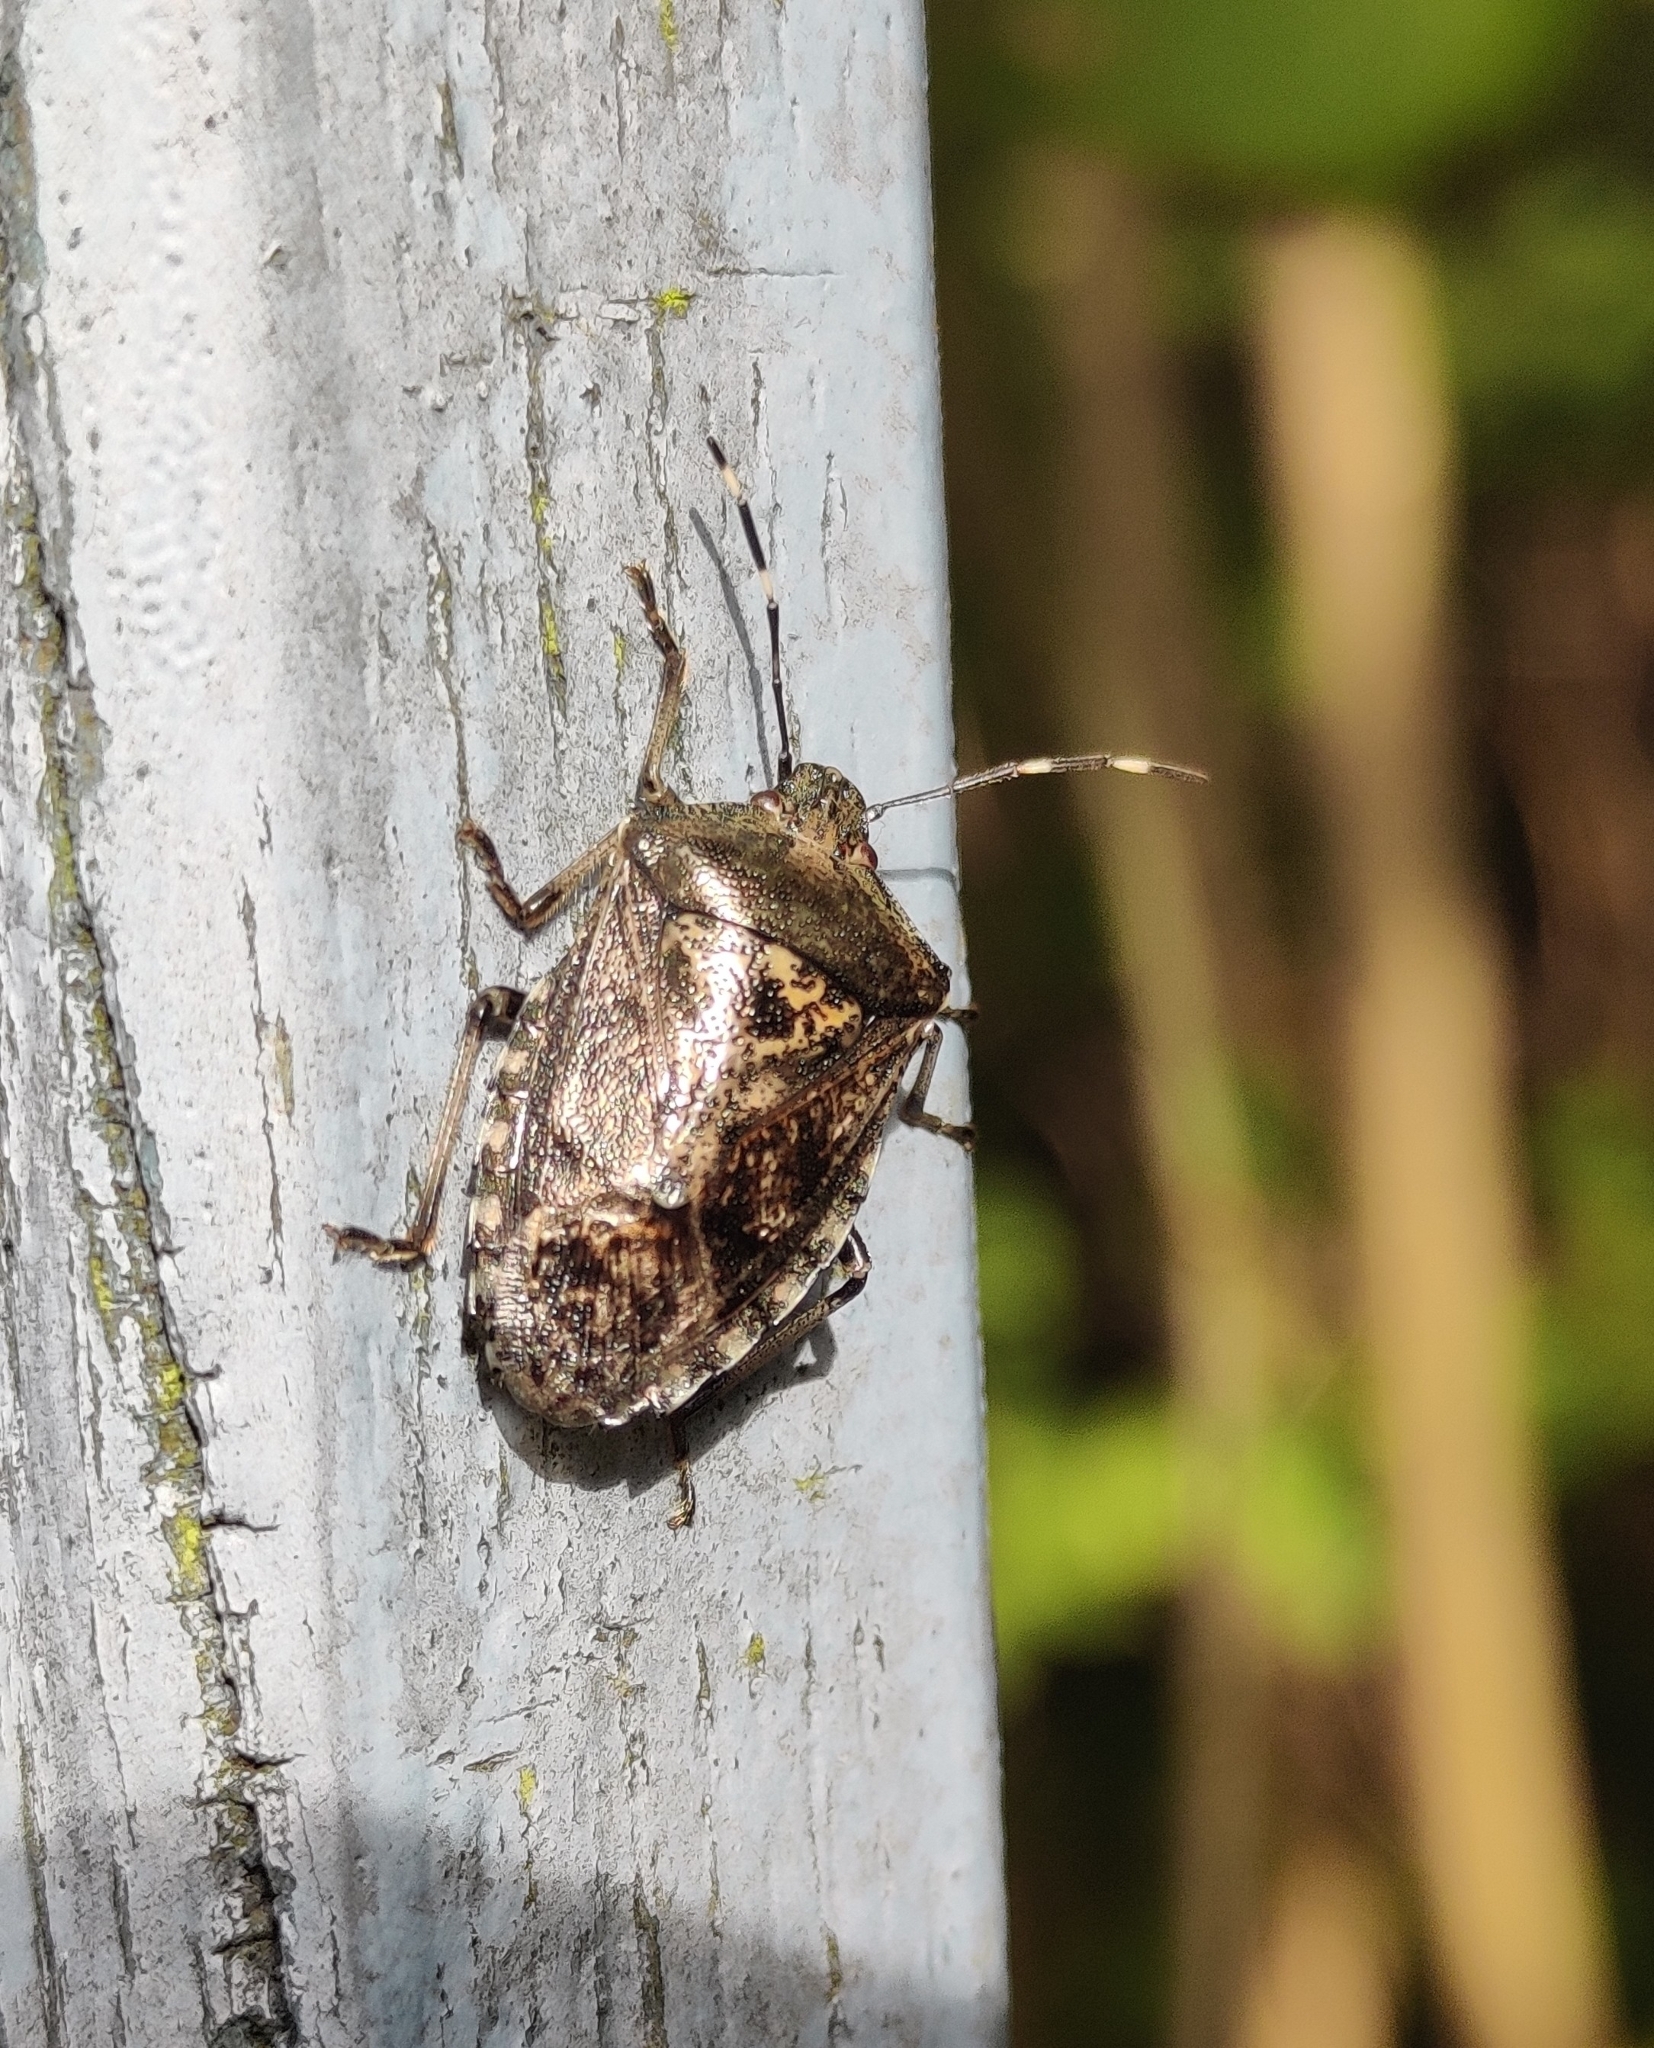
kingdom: Animalia
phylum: Arthropoda
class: Insecta
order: Hemiptera
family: Pentatomidae
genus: Rhaphigaster
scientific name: Rhaphigaster nebulosa
